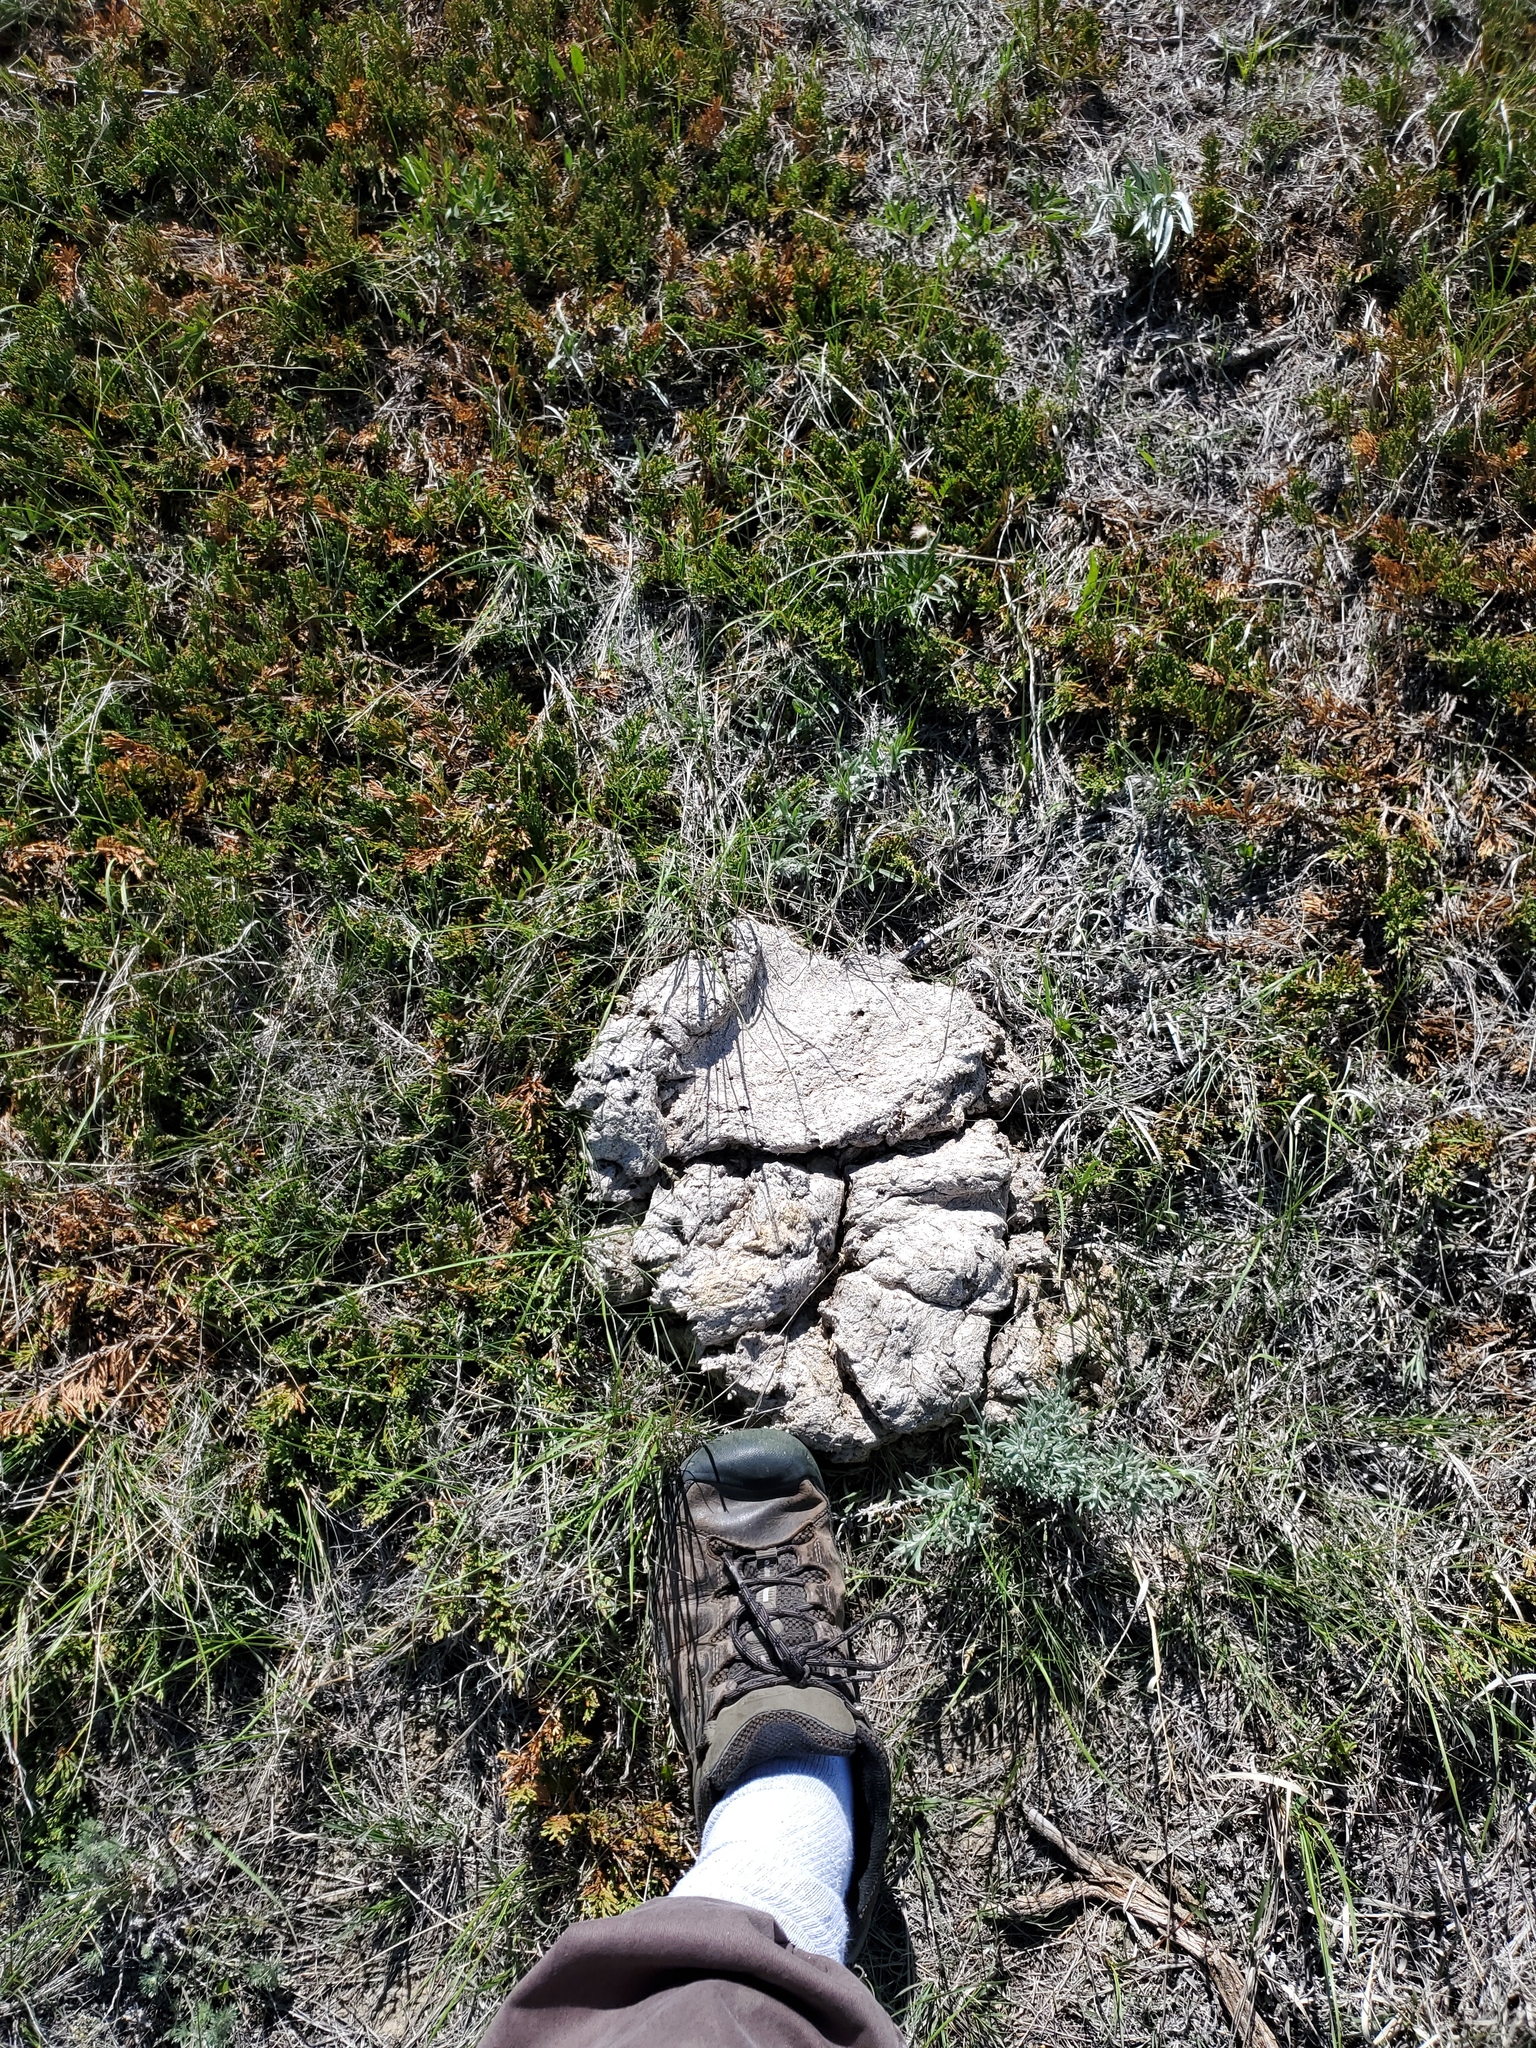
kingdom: Animalia
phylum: Chordata
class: Mammalia
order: Artiodactyla
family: Bovidae
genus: Bos
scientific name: Bos taurus
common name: Domesticated cattle
